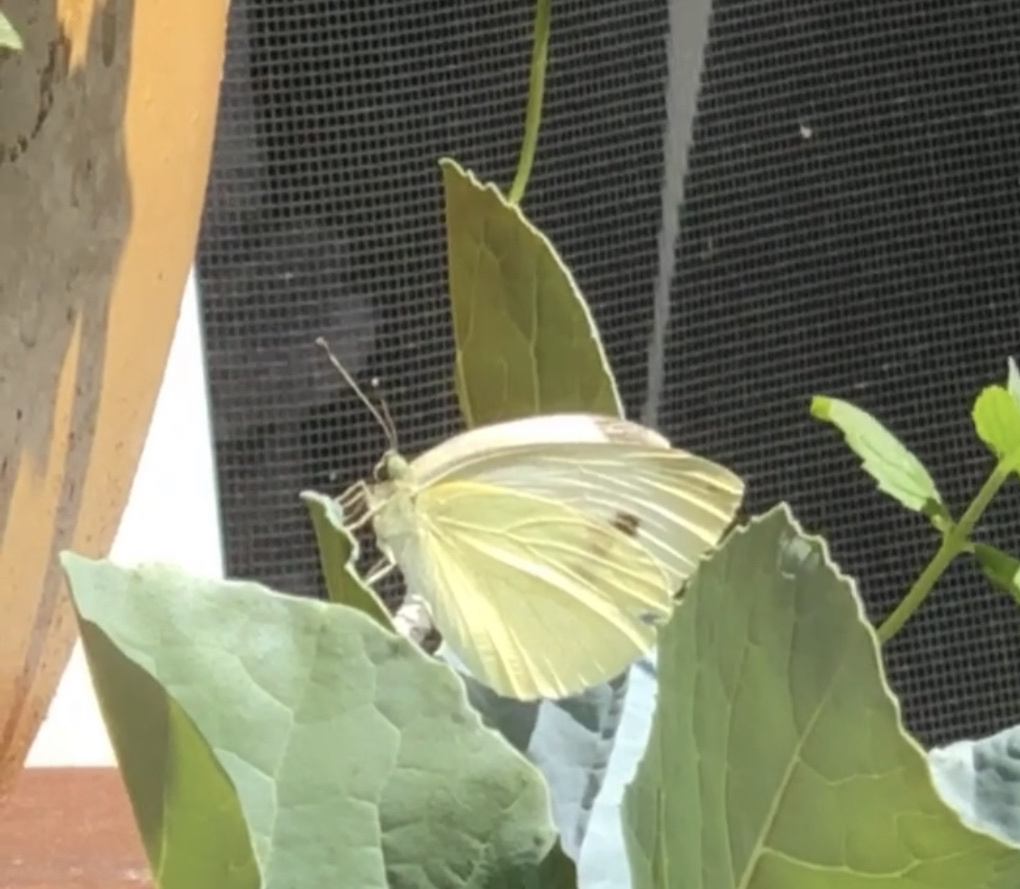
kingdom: Animalia
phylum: Arthropoda
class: Insecta
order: Lepidoptera
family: Pieridae
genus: Pieris
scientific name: Pieris rapae
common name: Small white
